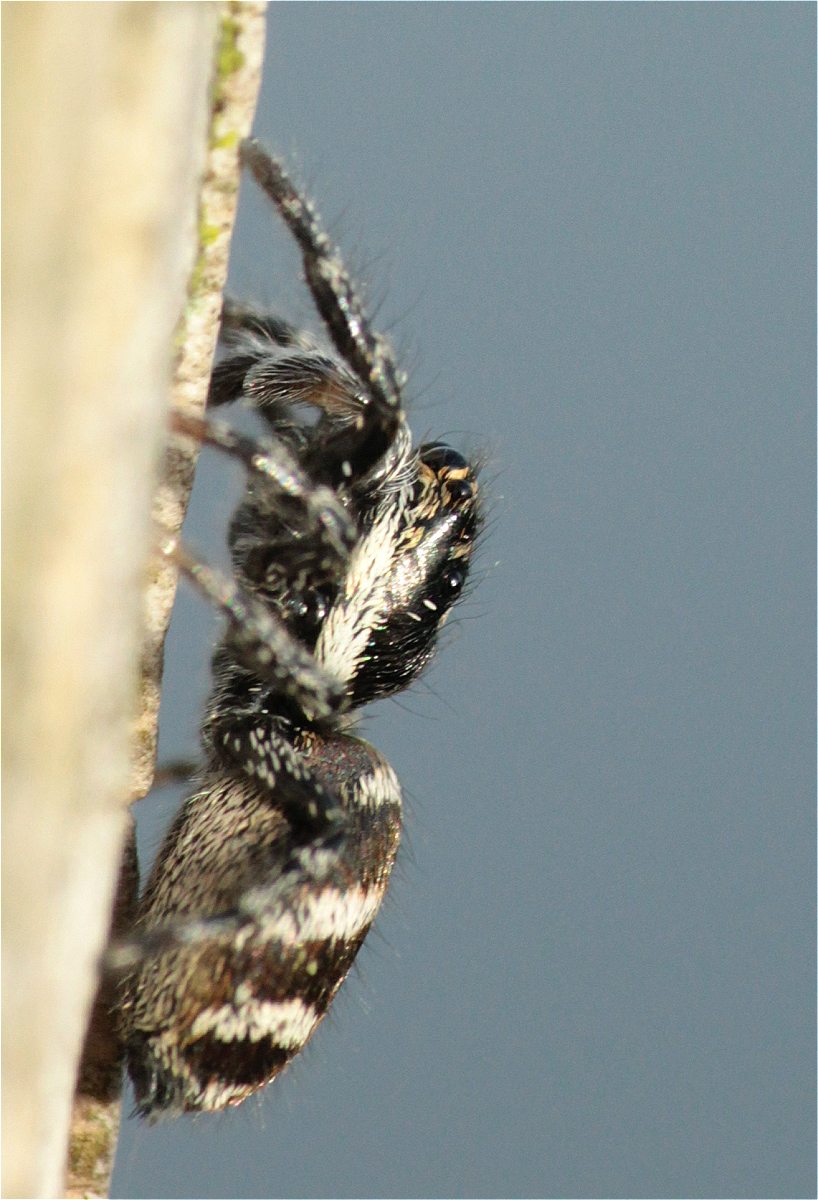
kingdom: Animalia
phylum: Arthropoda
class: Arachnida
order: Araneae
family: Salticidae
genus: Salticus
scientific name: Salticus scenicus
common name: Zebra jumper
